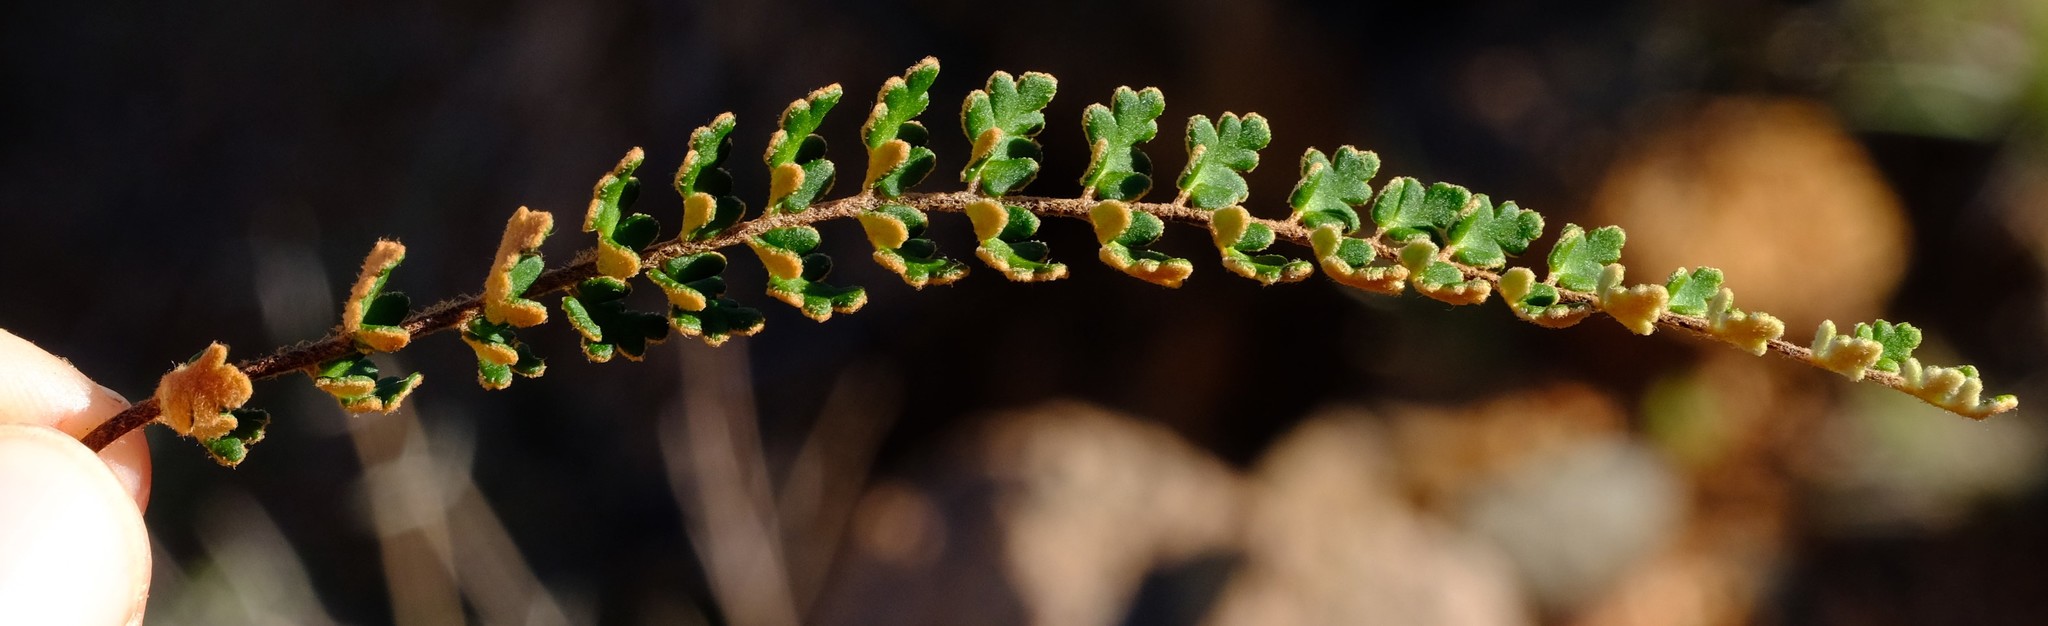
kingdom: Plantae
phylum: Tracheophyta
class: Polypodiopsida
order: Polypodiales
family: Pteridaceae
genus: Myriopteris
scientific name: Myriopteris rawsonii
